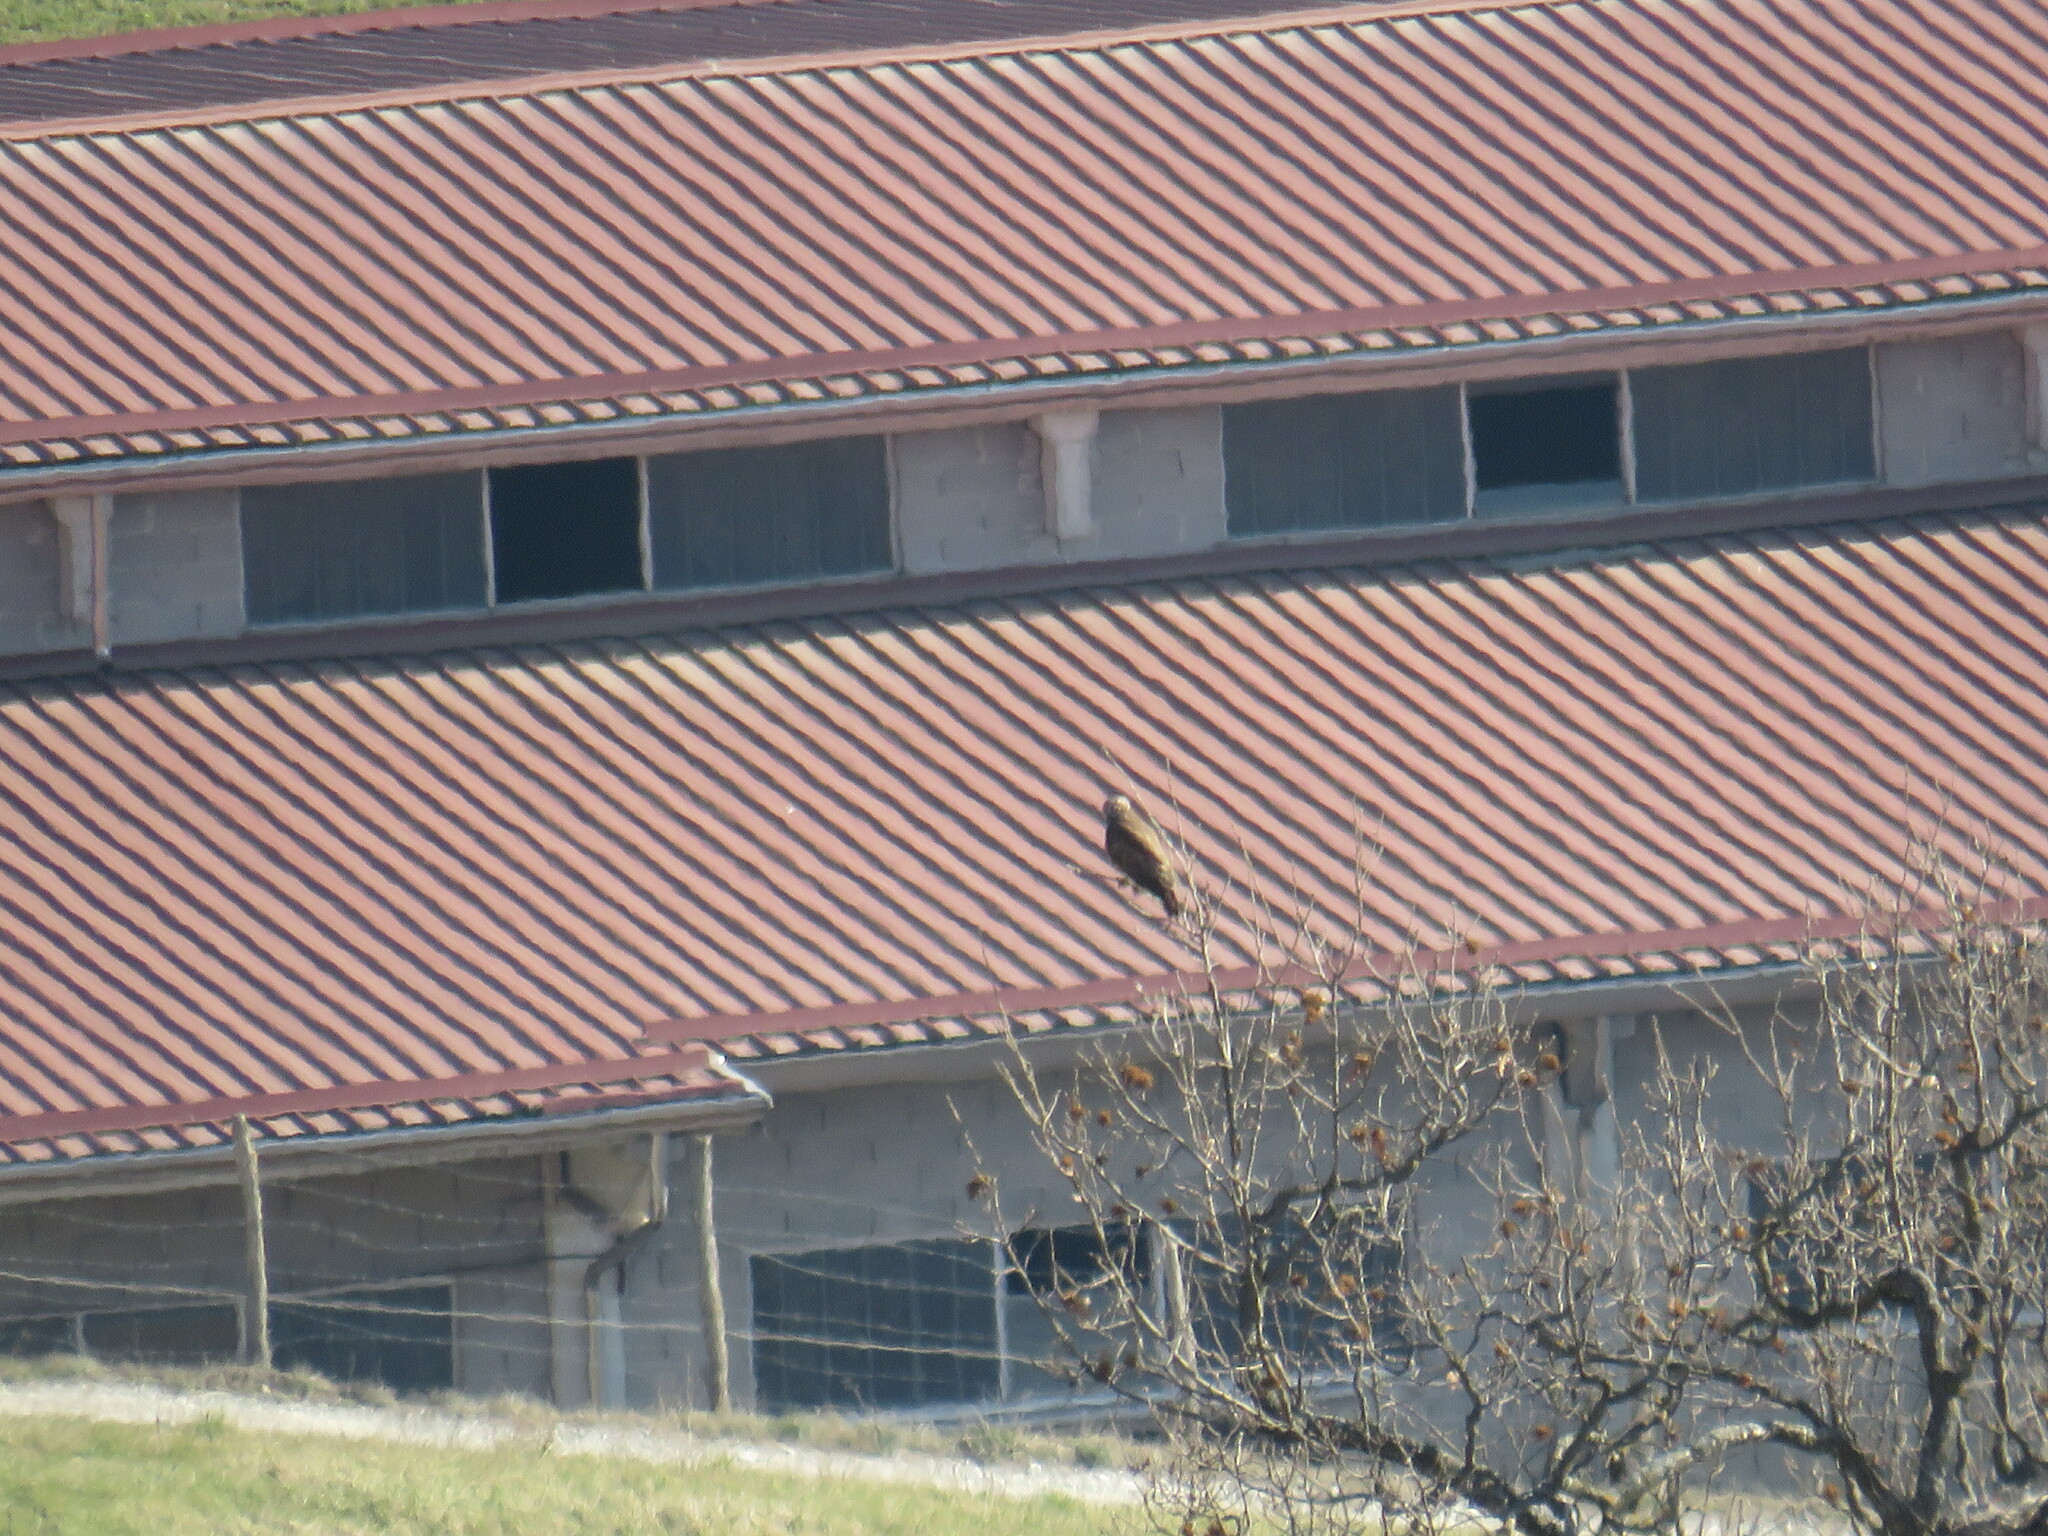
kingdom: Animalia
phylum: Chordata
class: Aves
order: Falconiformes
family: Falconidae
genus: Falco
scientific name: Falco tinnunculus
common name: Common kestrel
